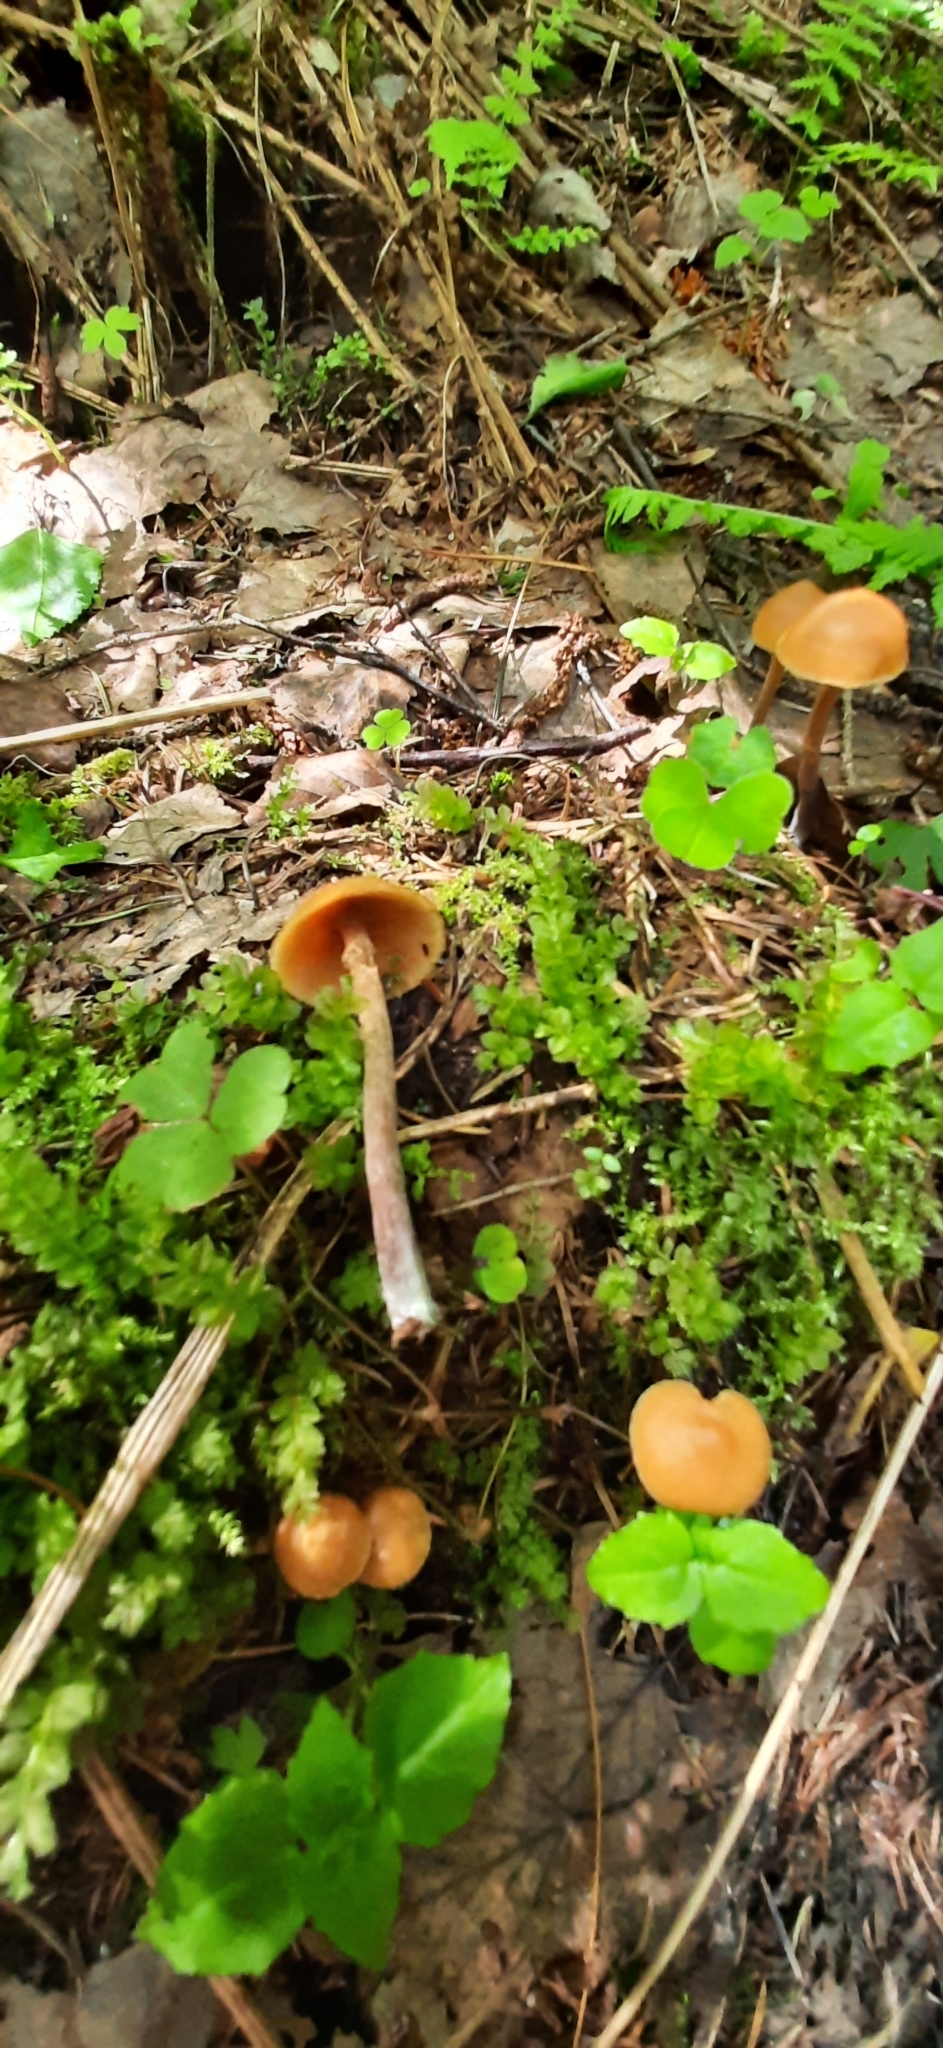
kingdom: Fungi
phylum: Basidiomycota
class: Agaricomycetes
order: Agaricales
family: Strophariaceae
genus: Pholiota
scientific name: Pholiota lignicola
